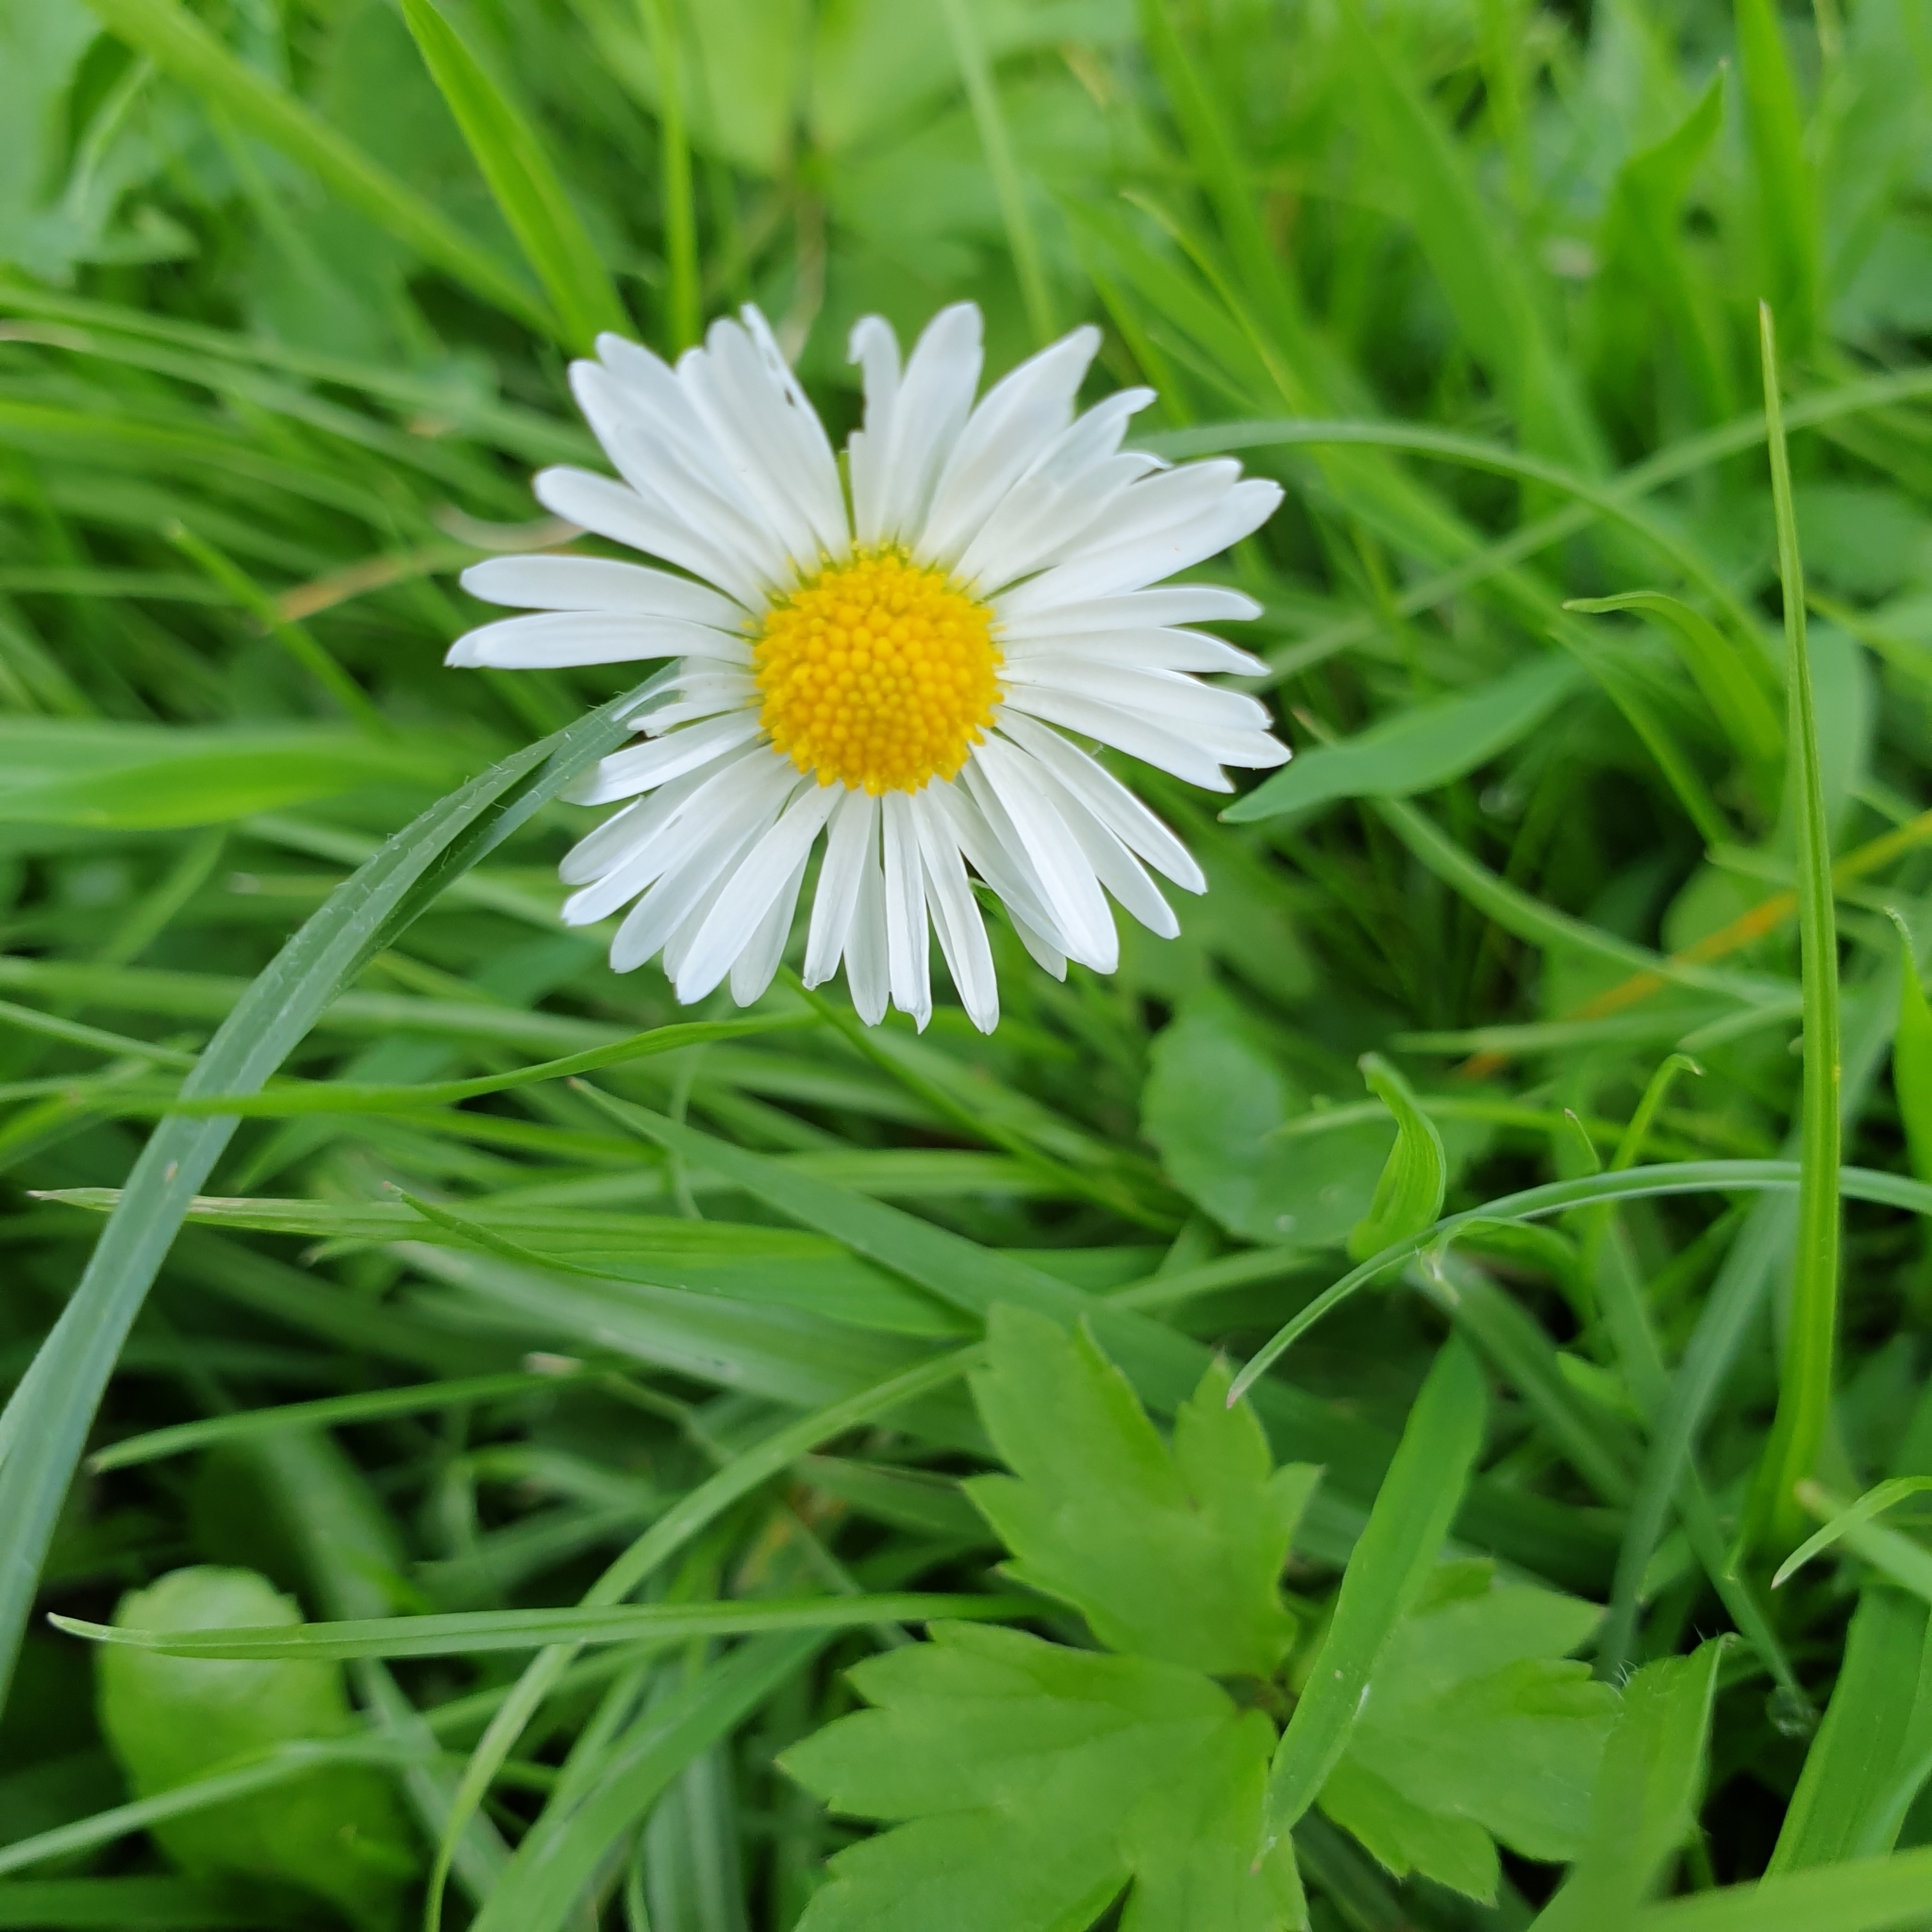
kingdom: Plantae
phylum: Tracheophyta
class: Magnoliopsida
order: Asterales
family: Asteraceae
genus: Bellis
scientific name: Bellis perennis
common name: Lawndaisy
